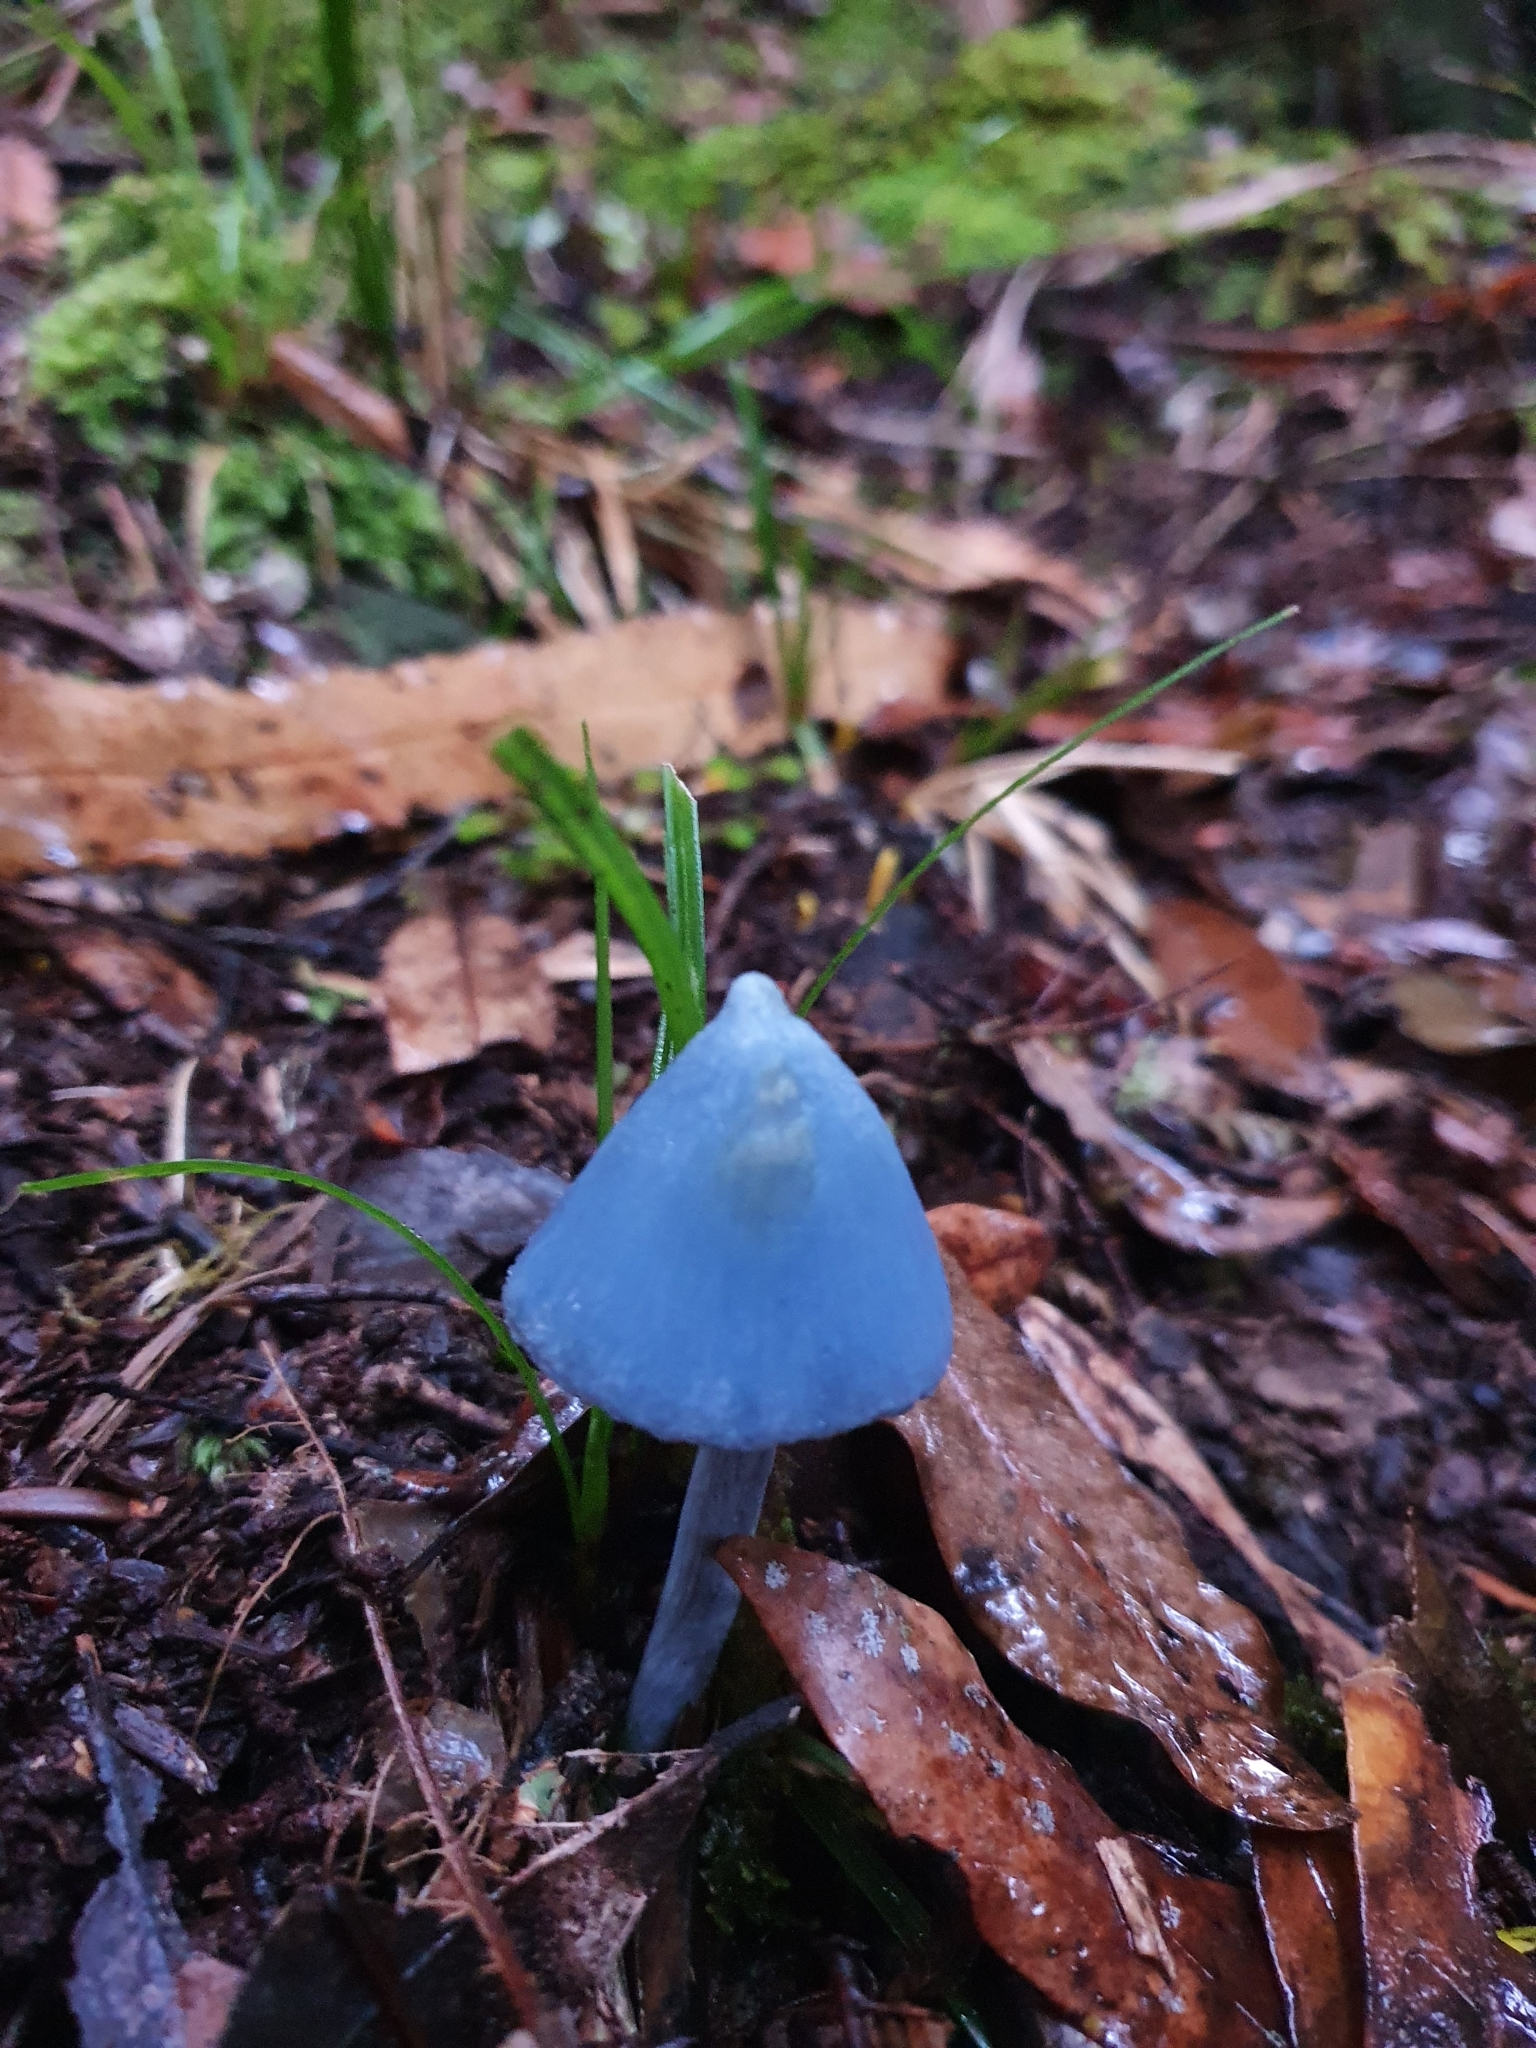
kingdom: Fungi
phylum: Basidiomycota
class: Agaricomycetes
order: Agaricales
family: Entolomataceae
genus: Entoloma
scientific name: Entoloma hochstetteri
